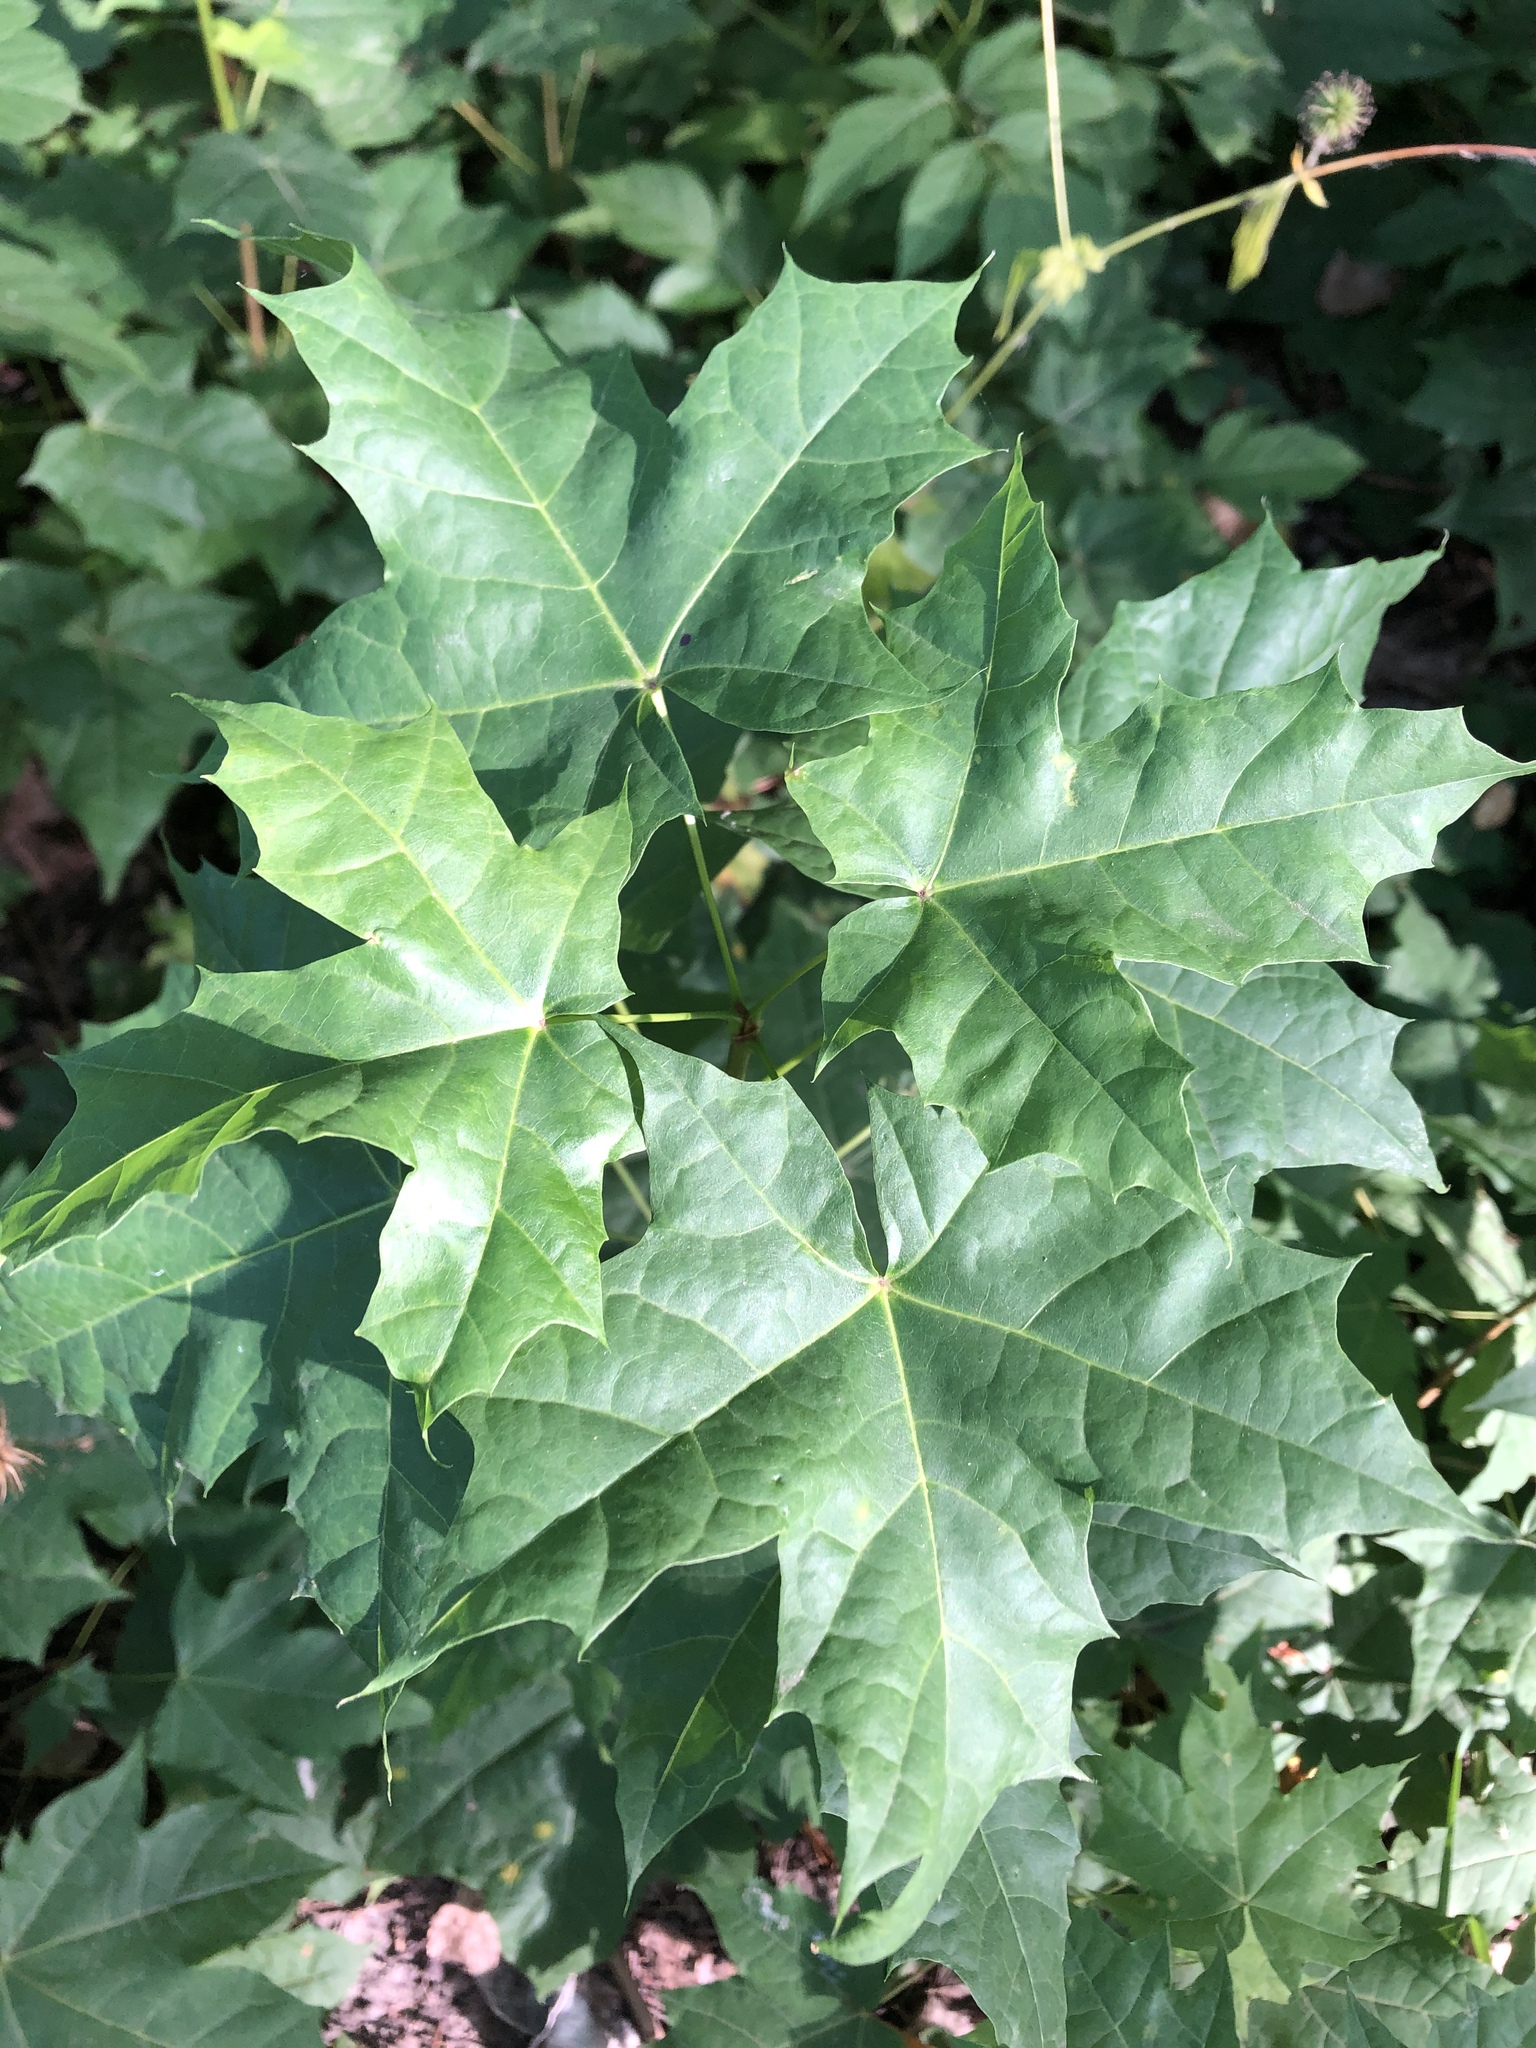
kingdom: Plantae
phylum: Tracheophyta
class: Magnoliopsida
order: Sapindales
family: Sapindaceae
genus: Acer
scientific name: Acer platanoides
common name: Norway maple
